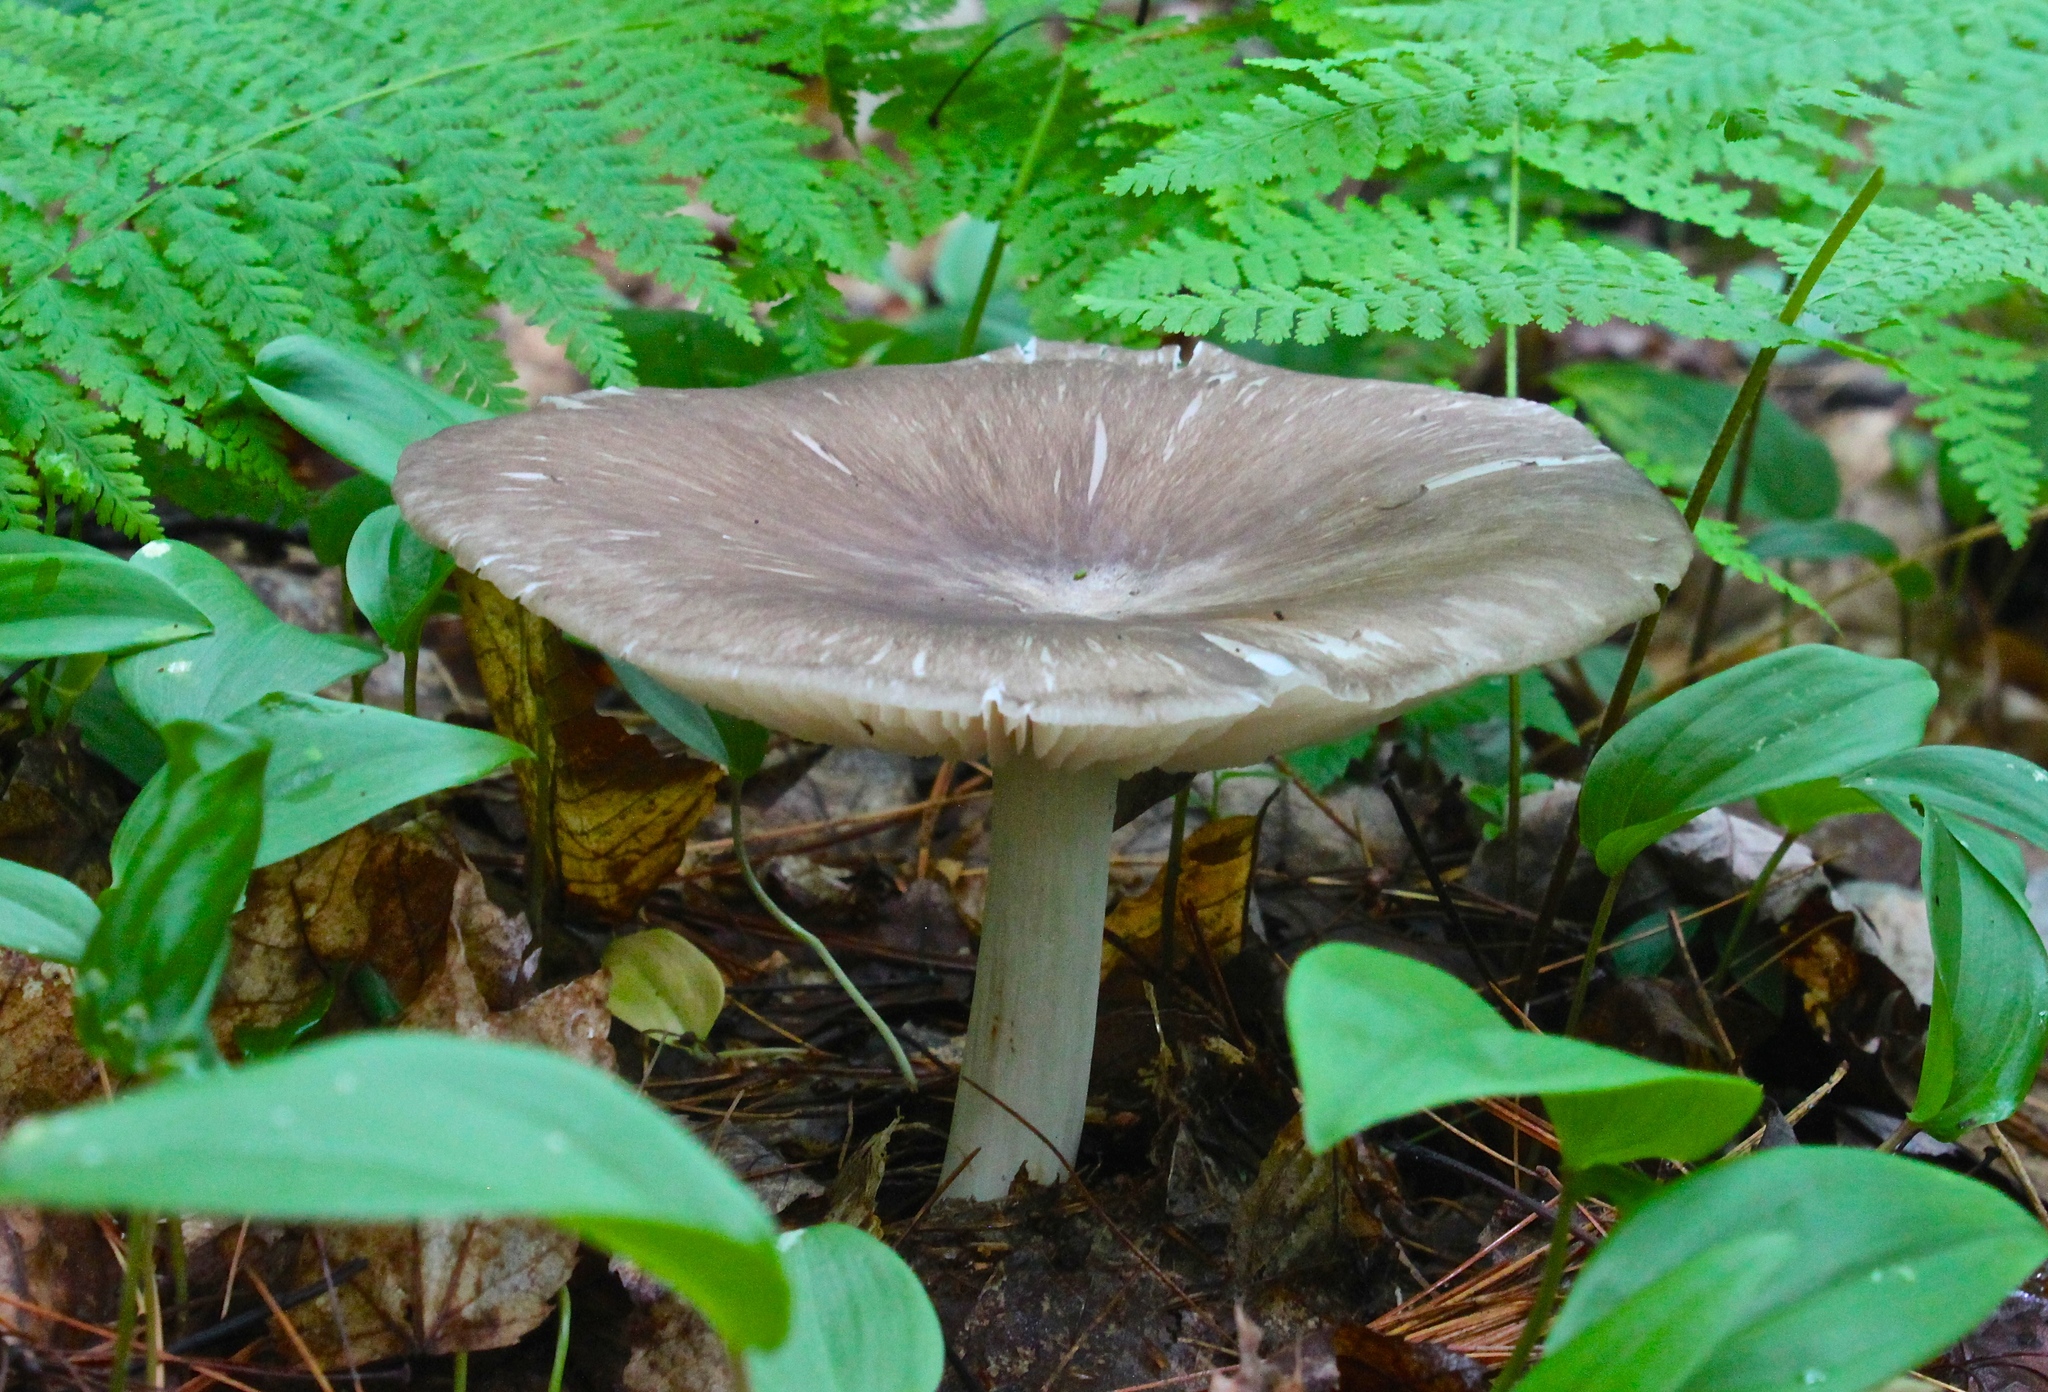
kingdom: Fungi
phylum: Basidiomycota
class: Agaricomycetes
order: Agaricales
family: Tricholomataceae
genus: Megacollybia
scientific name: Megacollybia rodmanii
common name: Eastern american platterful mushroom
